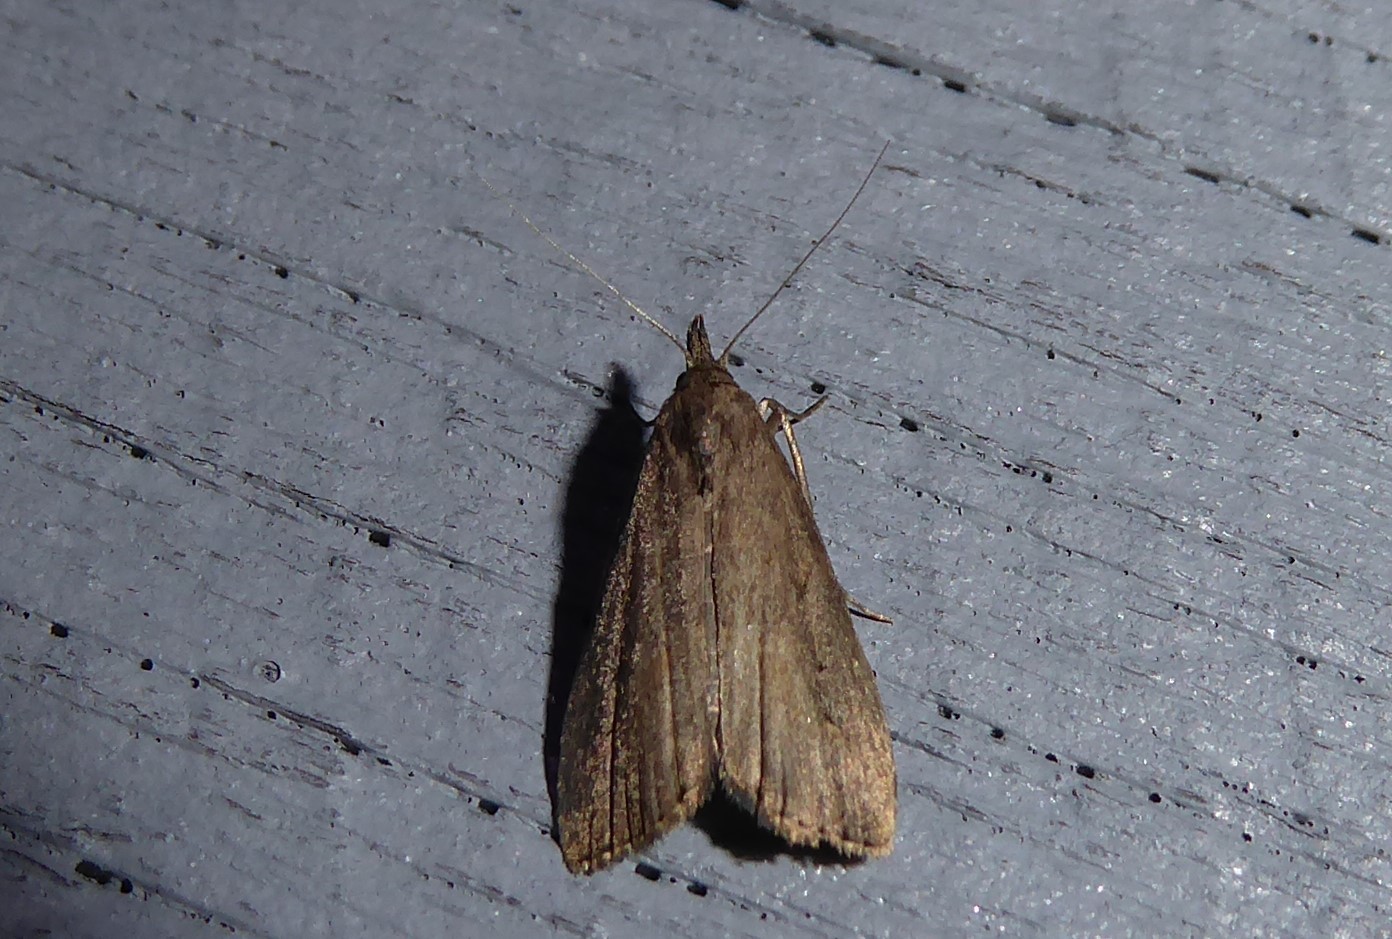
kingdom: Animalia
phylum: Arthropoda
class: Insecta
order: Lepidoptera
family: Erebidae
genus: Schrankia
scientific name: Schrankia costaestrigalis
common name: Pinion-streaked snout
